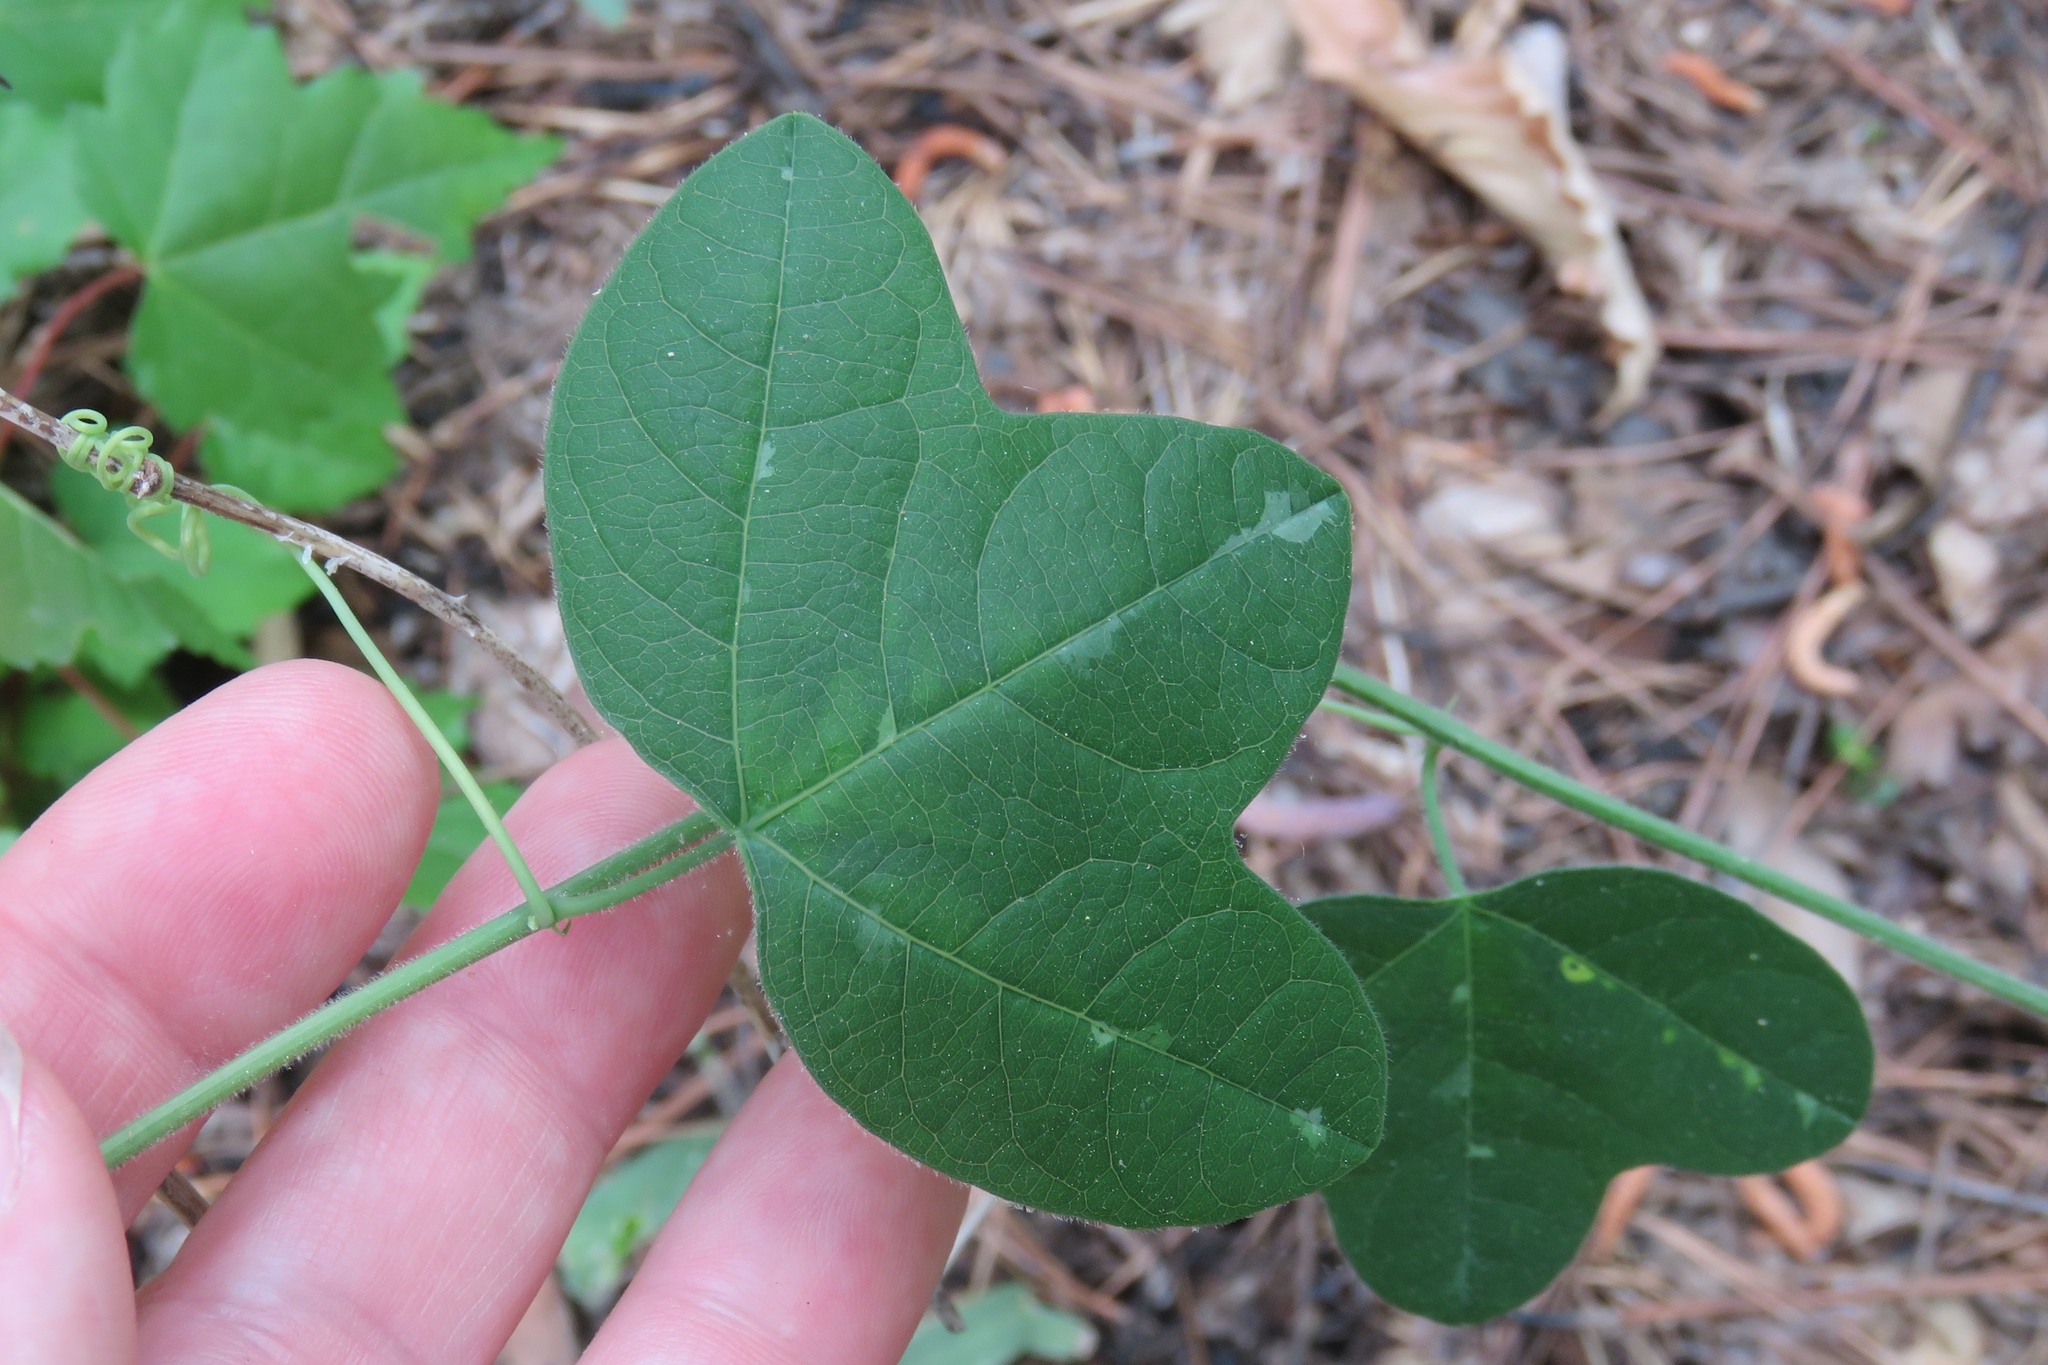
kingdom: Plantae
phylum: Tracheophyta
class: Magnoliopsida
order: Malpighiales
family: Passifloraceae
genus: Passiflora
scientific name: Passiflora lutea
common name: Yellow passionflower
